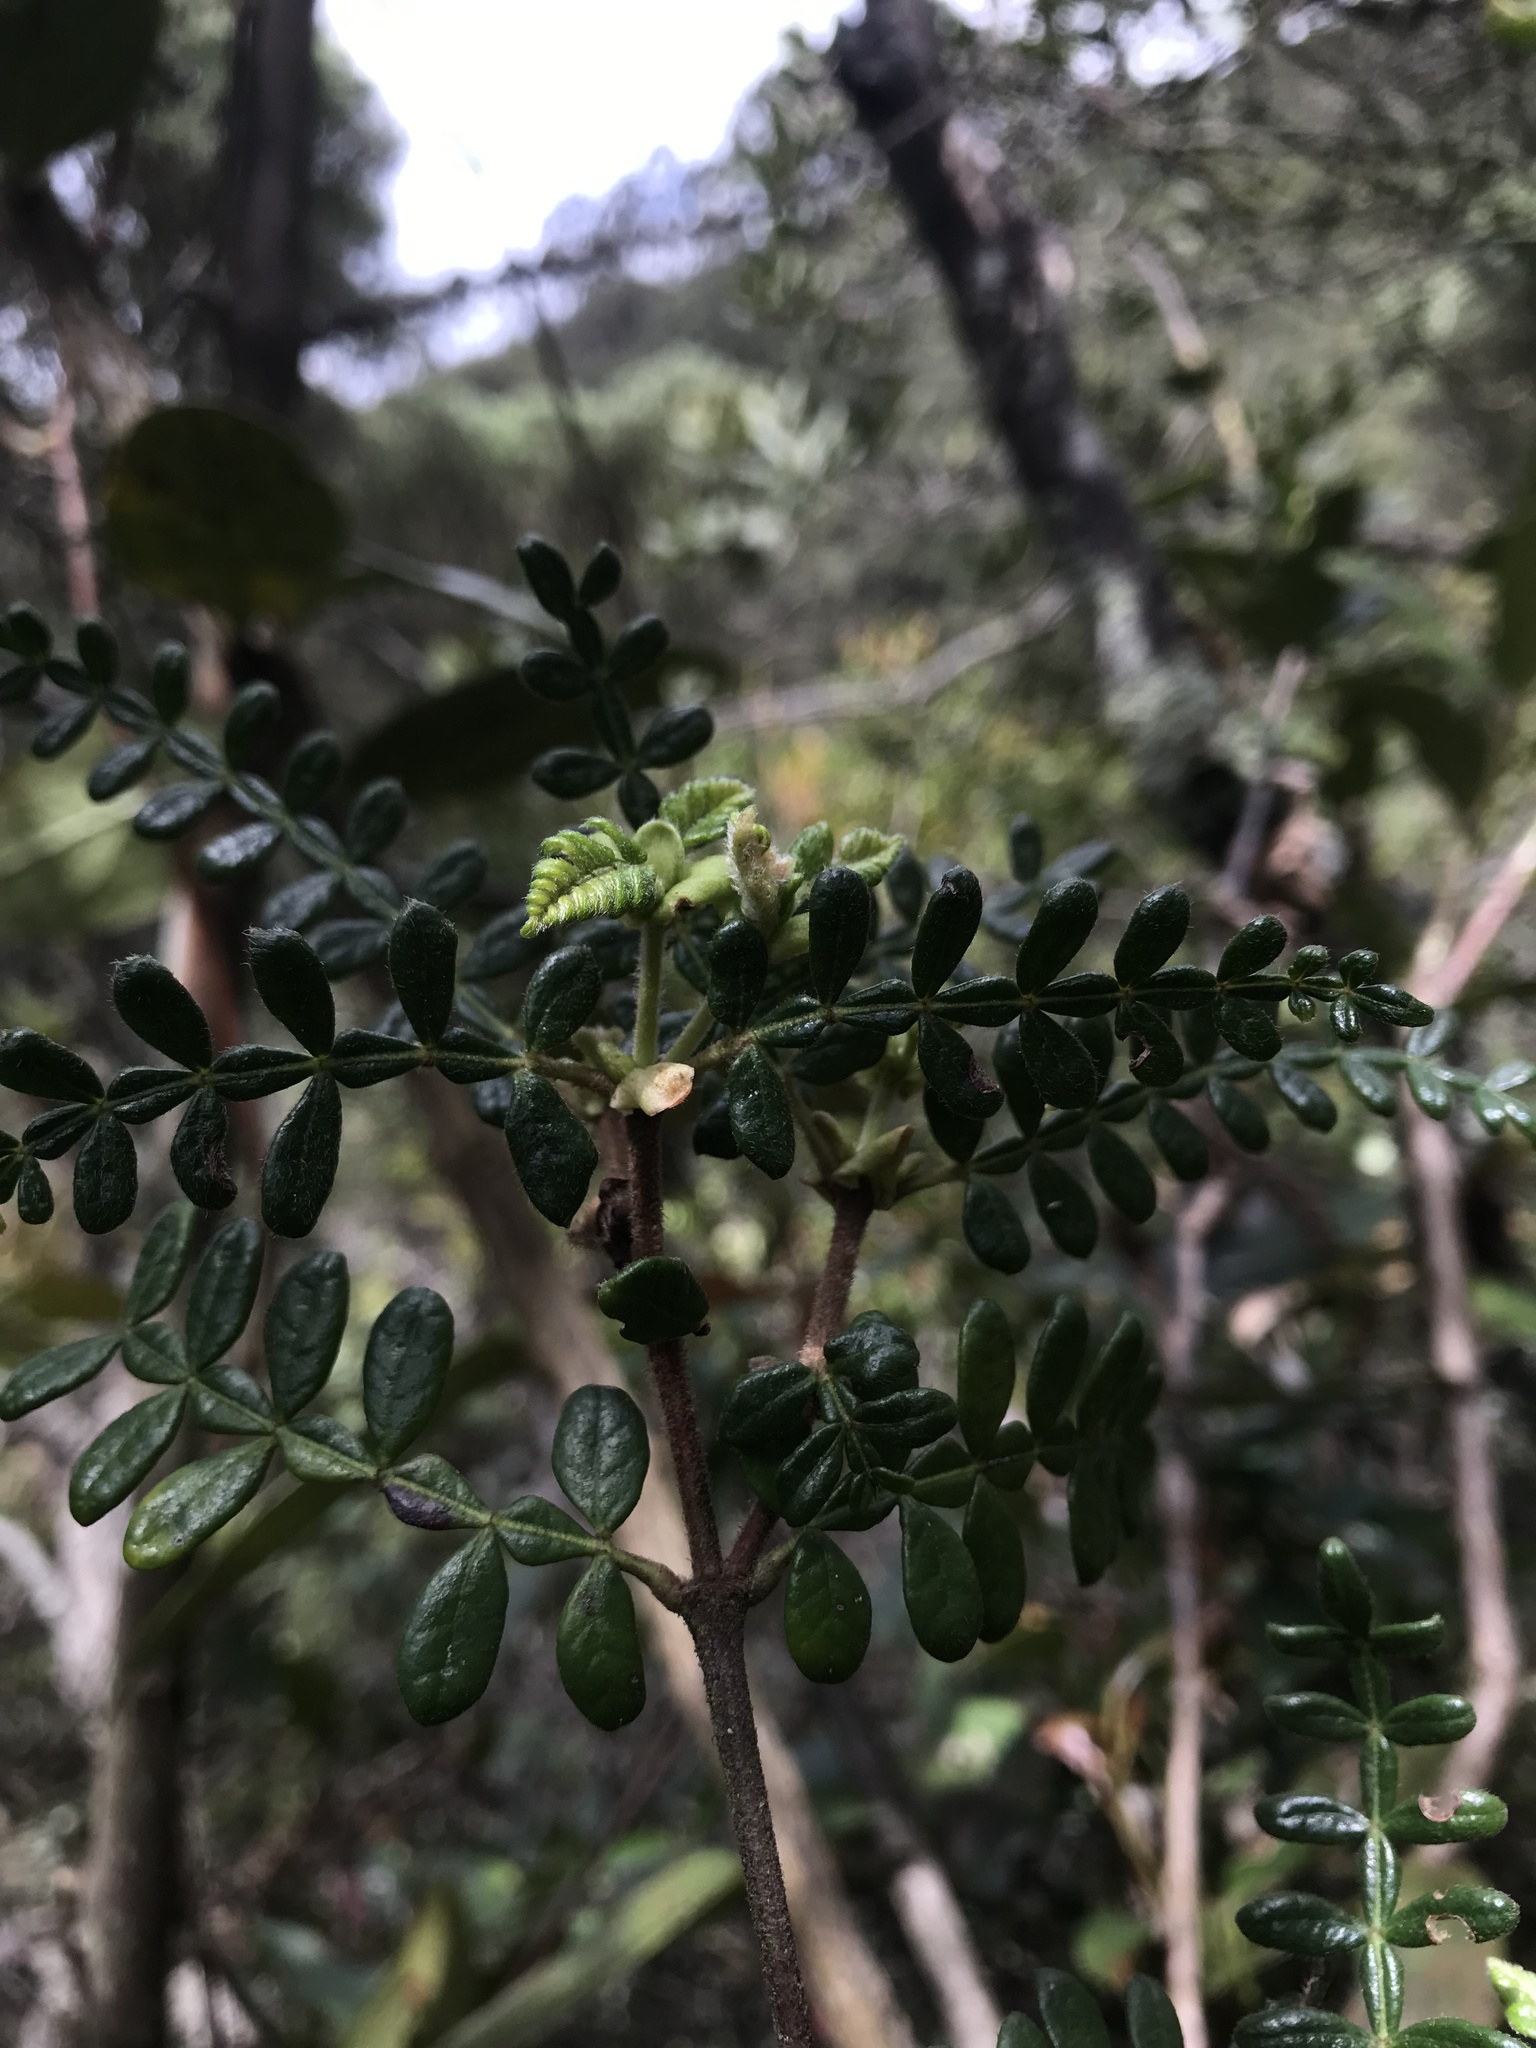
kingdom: Plantae
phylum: Tracheophyta
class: Magnoliopsida
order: Oxalidales
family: Cunoniaceae
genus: Weinmannia
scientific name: Weinmannia tomentosa
